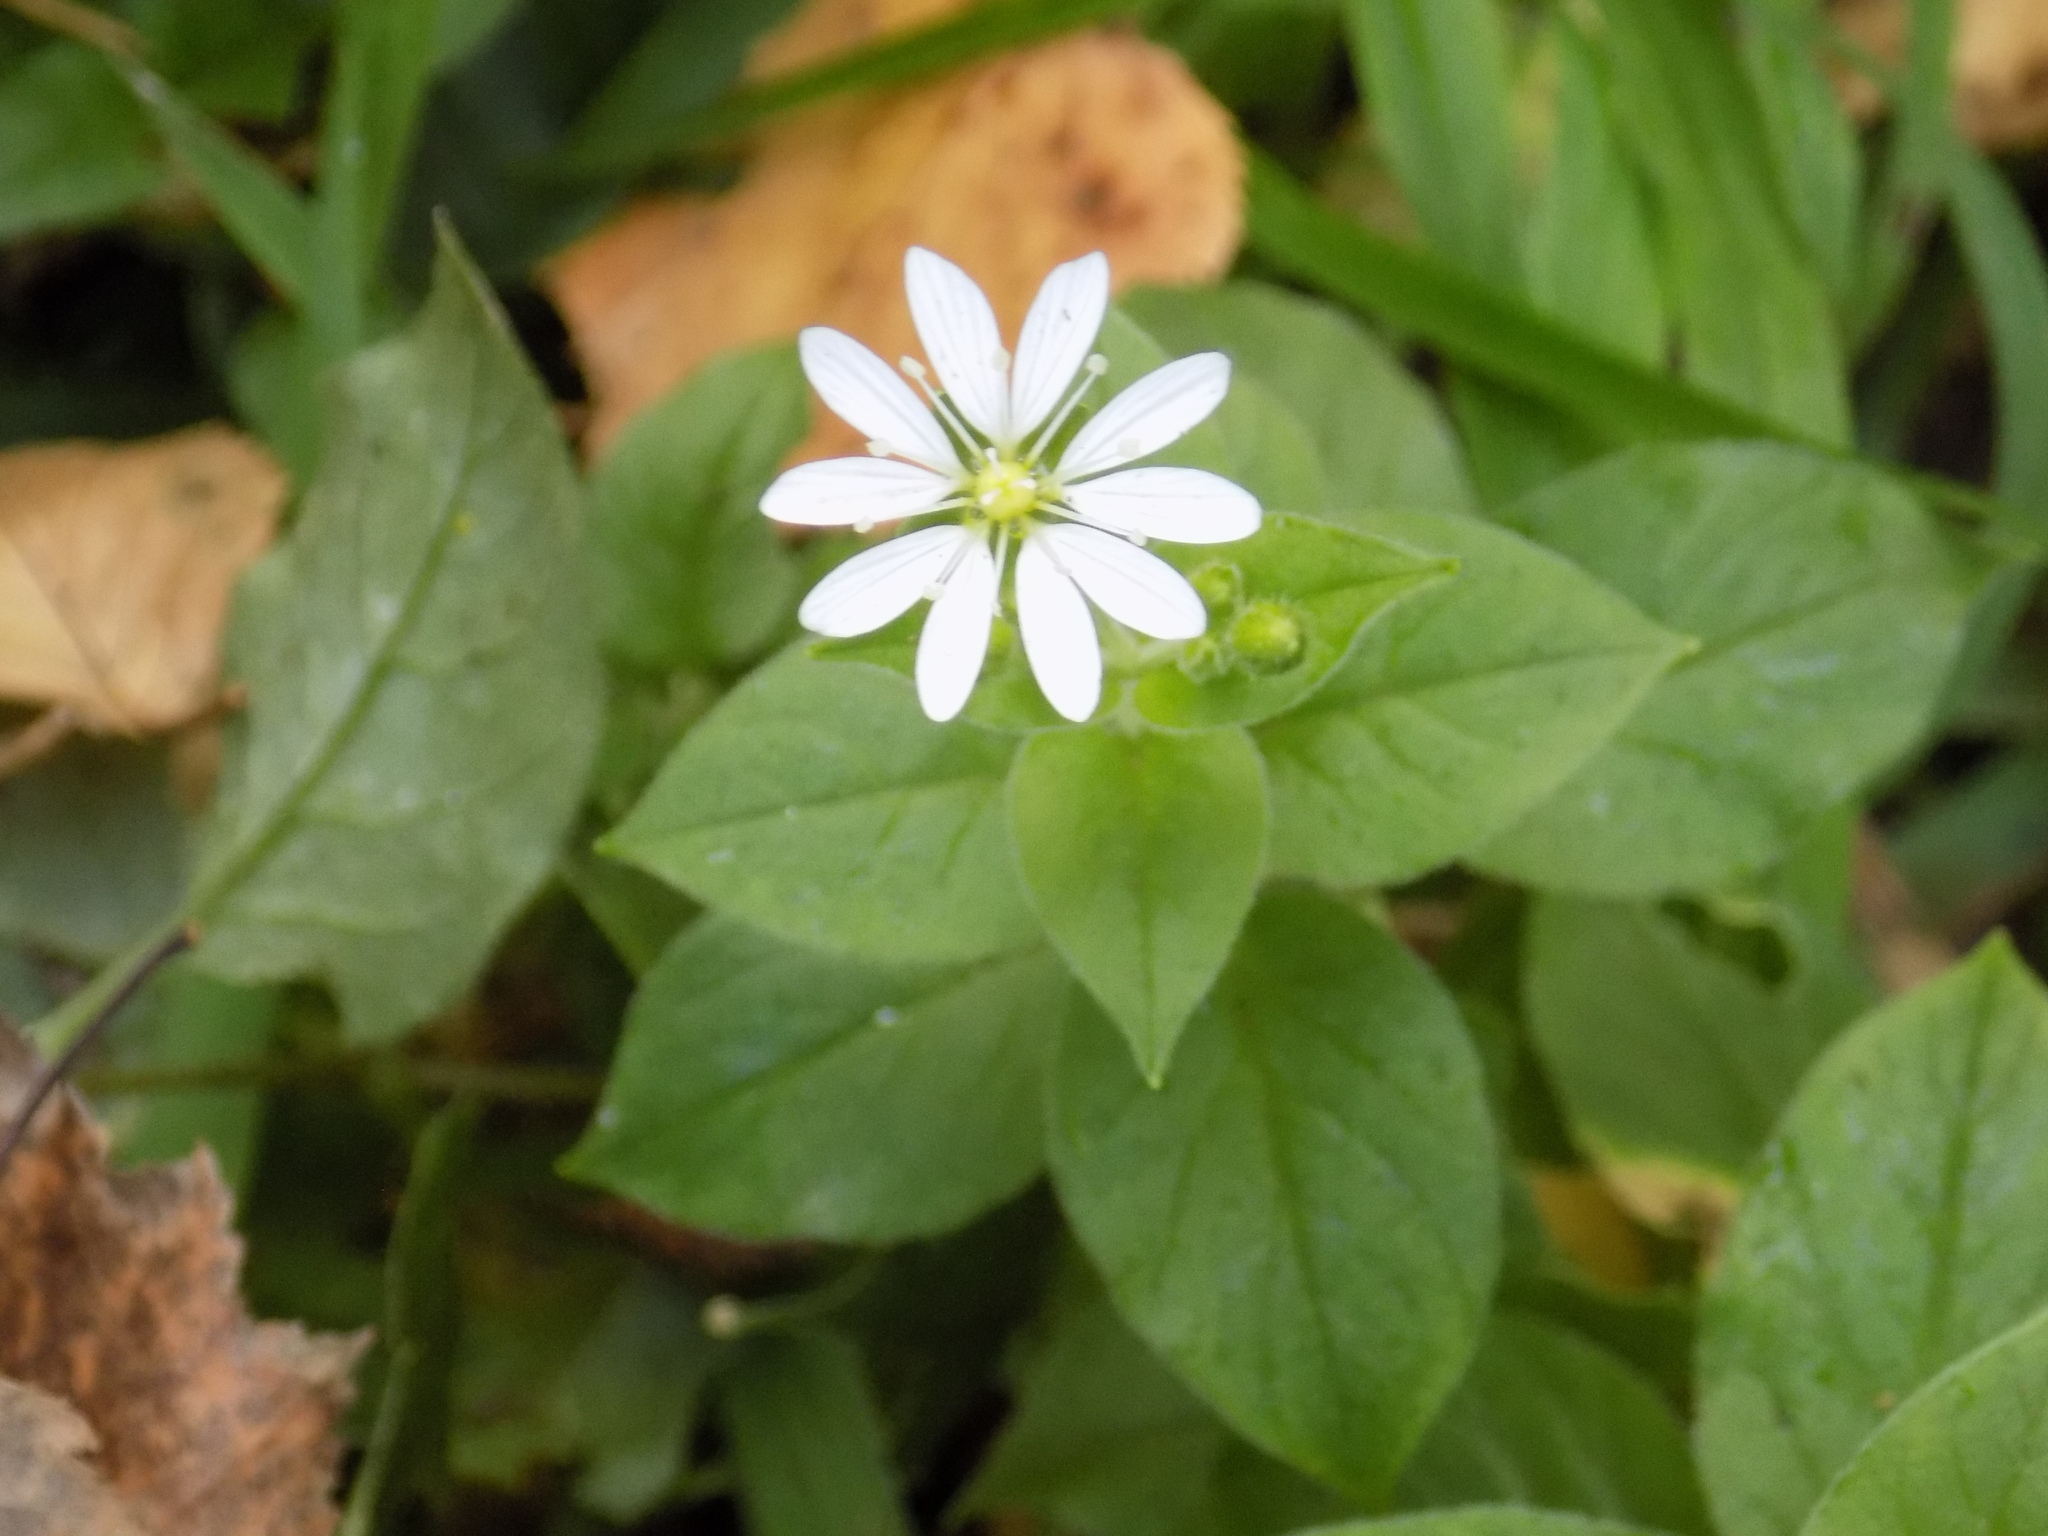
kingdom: Plantae
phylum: Tracheophyta
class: Magnoliopsida
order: Caryophyllales
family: Caryophyllaceae
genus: Stellaria
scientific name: Stellaria bungeana
